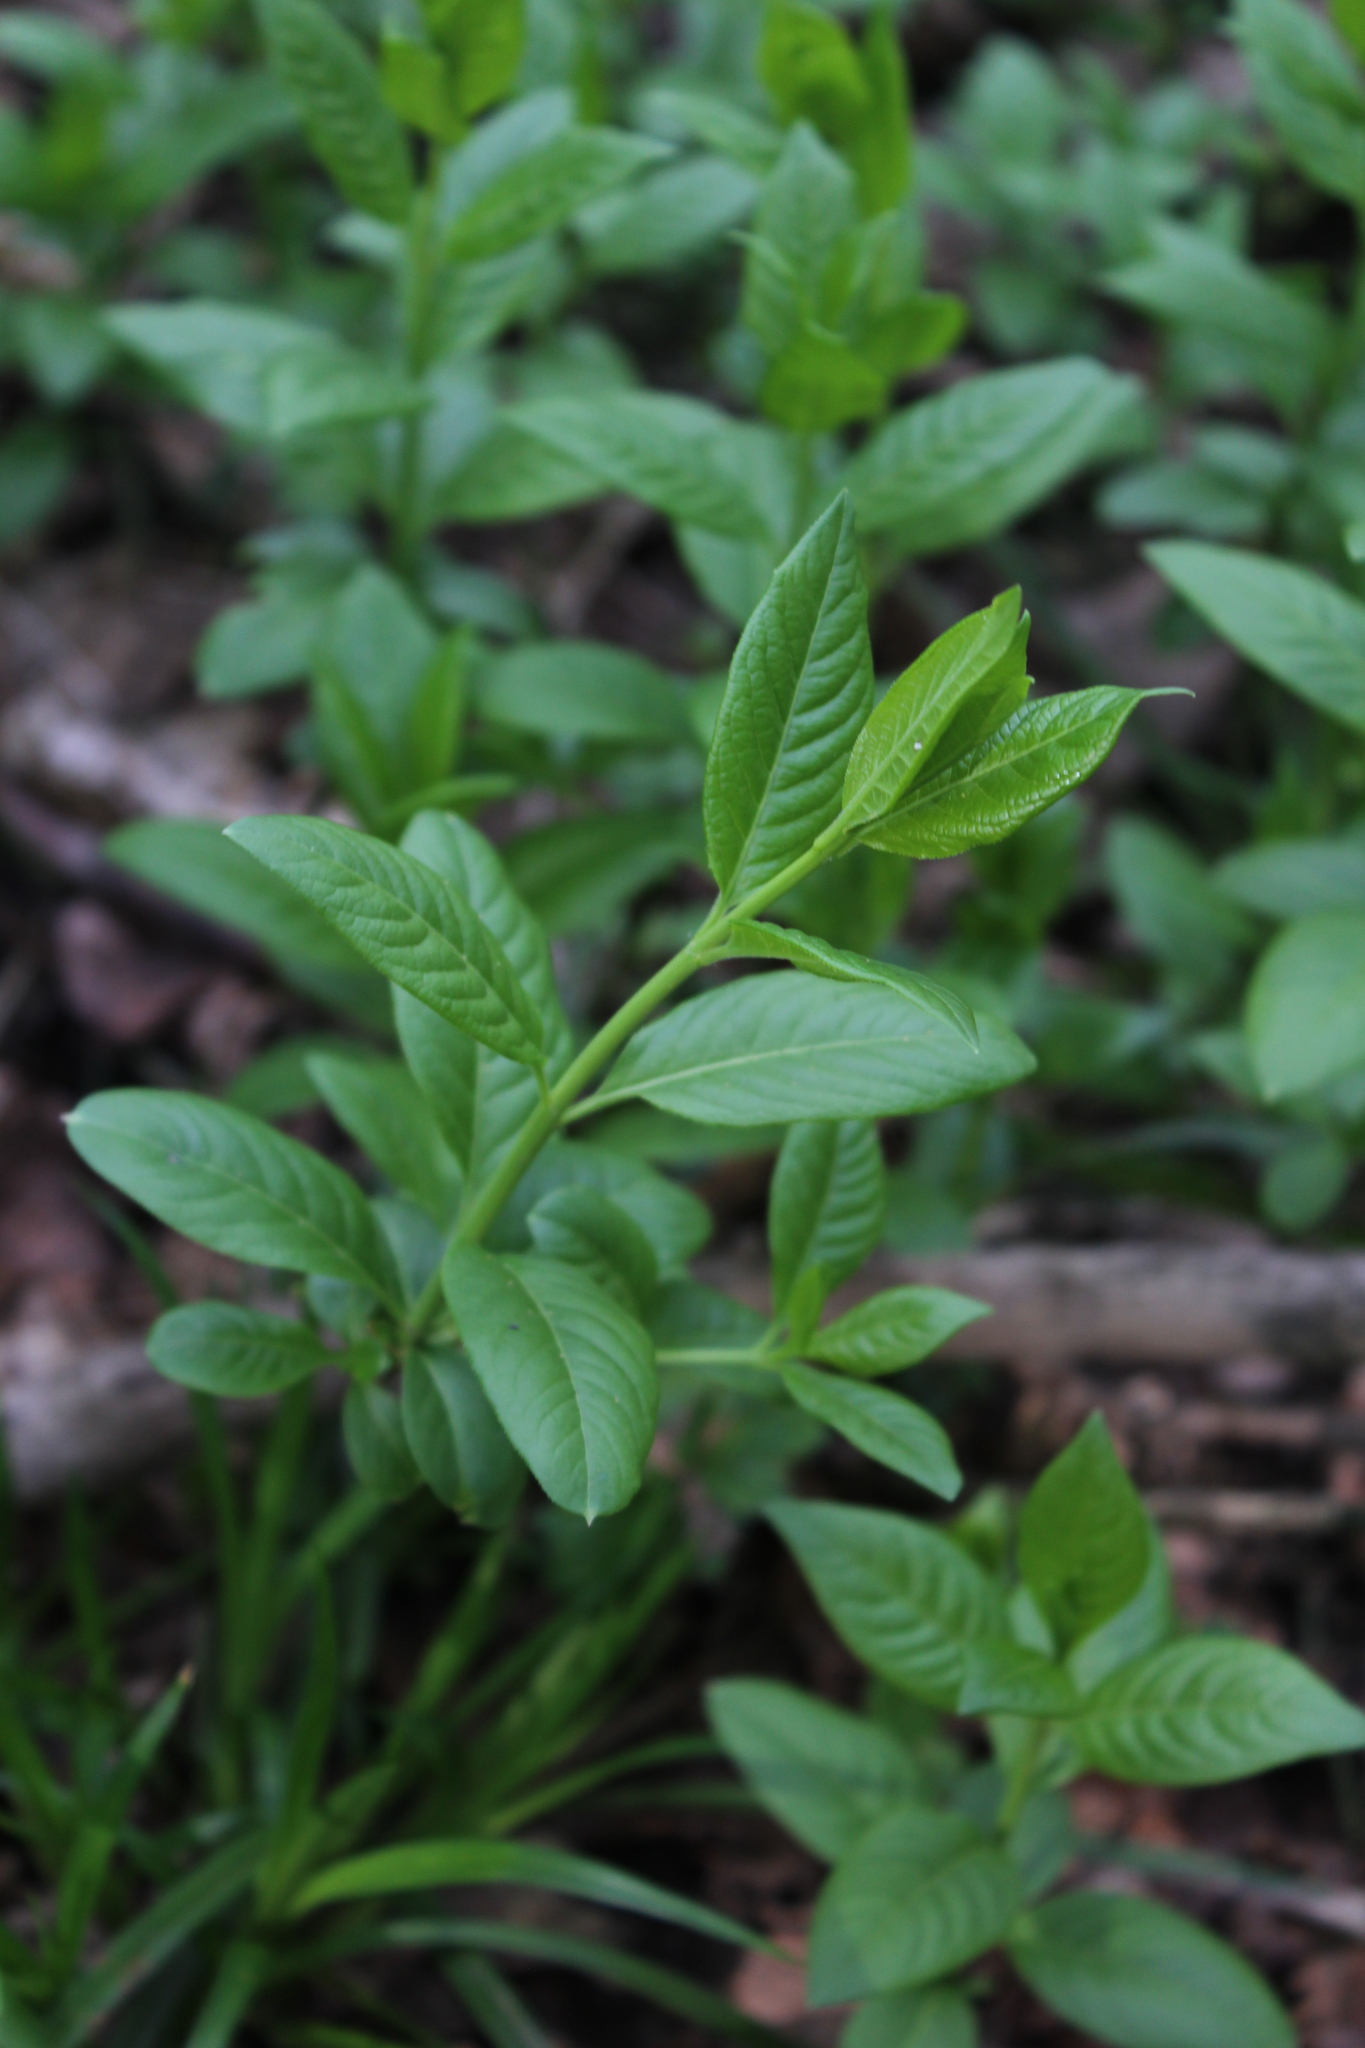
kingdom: Plantae
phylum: Tracheophyta
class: Magnoliopsida
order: Celastrales
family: Celastraceae
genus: Euonymus
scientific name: Euonymus europaeus
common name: Spindle
